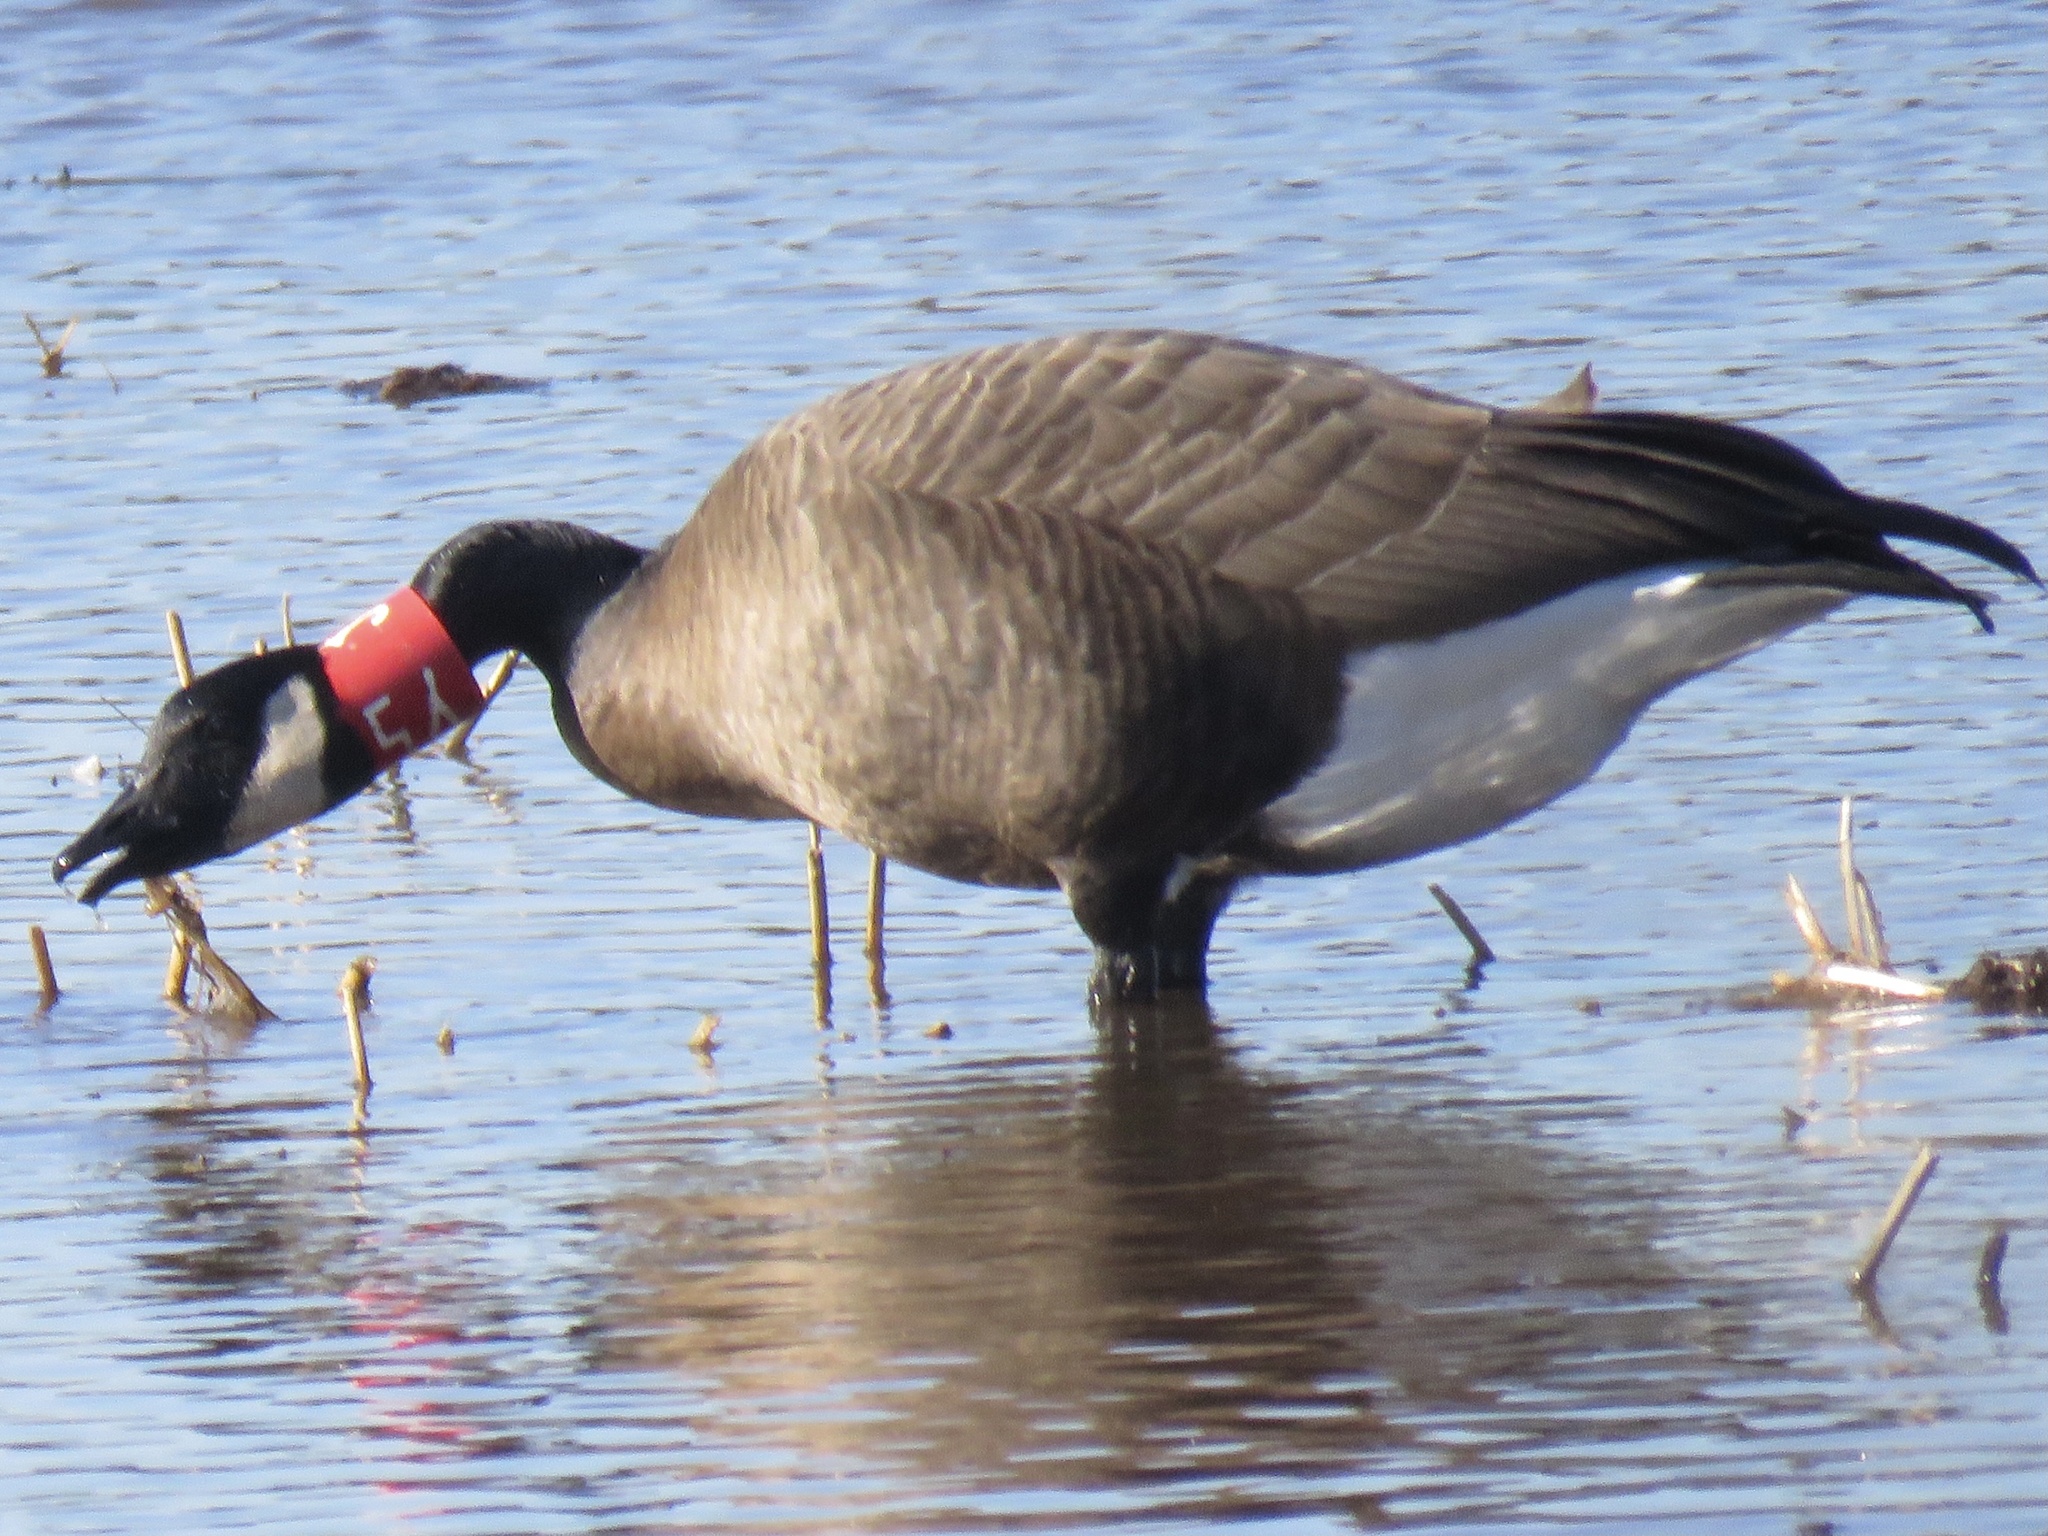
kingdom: Animalia
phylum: Chordata
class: Aves
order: Anseriformes
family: Anatidae
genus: Branta
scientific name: Branta canadensis
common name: Canada goose
